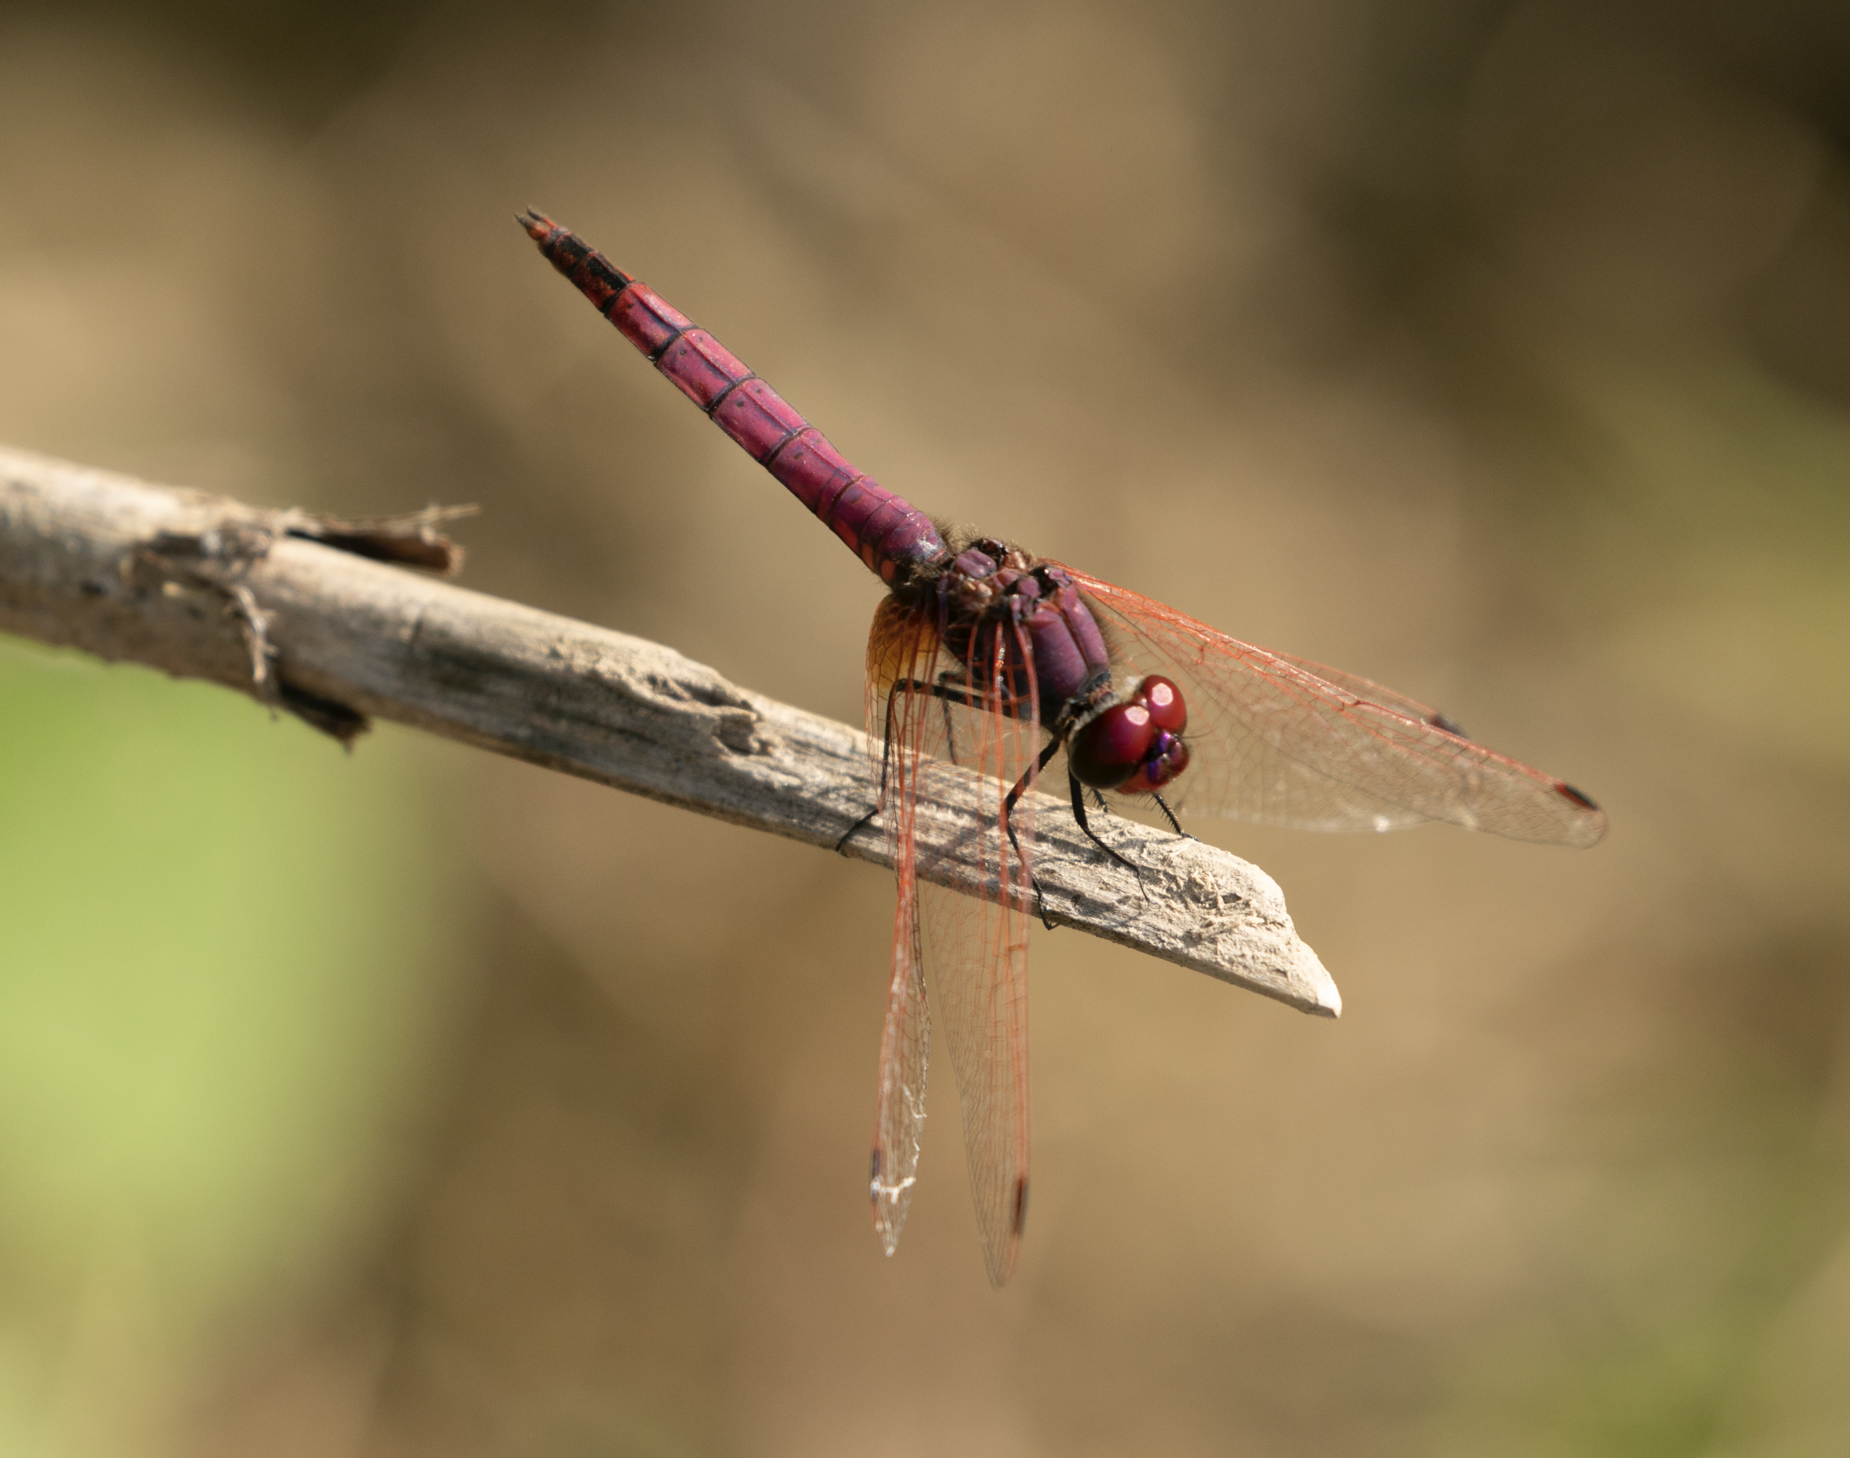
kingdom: Animalia
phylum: Arthropoda
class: Insecta
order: Odonata
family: Libellulidae
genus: Trithemis
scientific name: Trithemis annulata
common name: Violet dropwing
